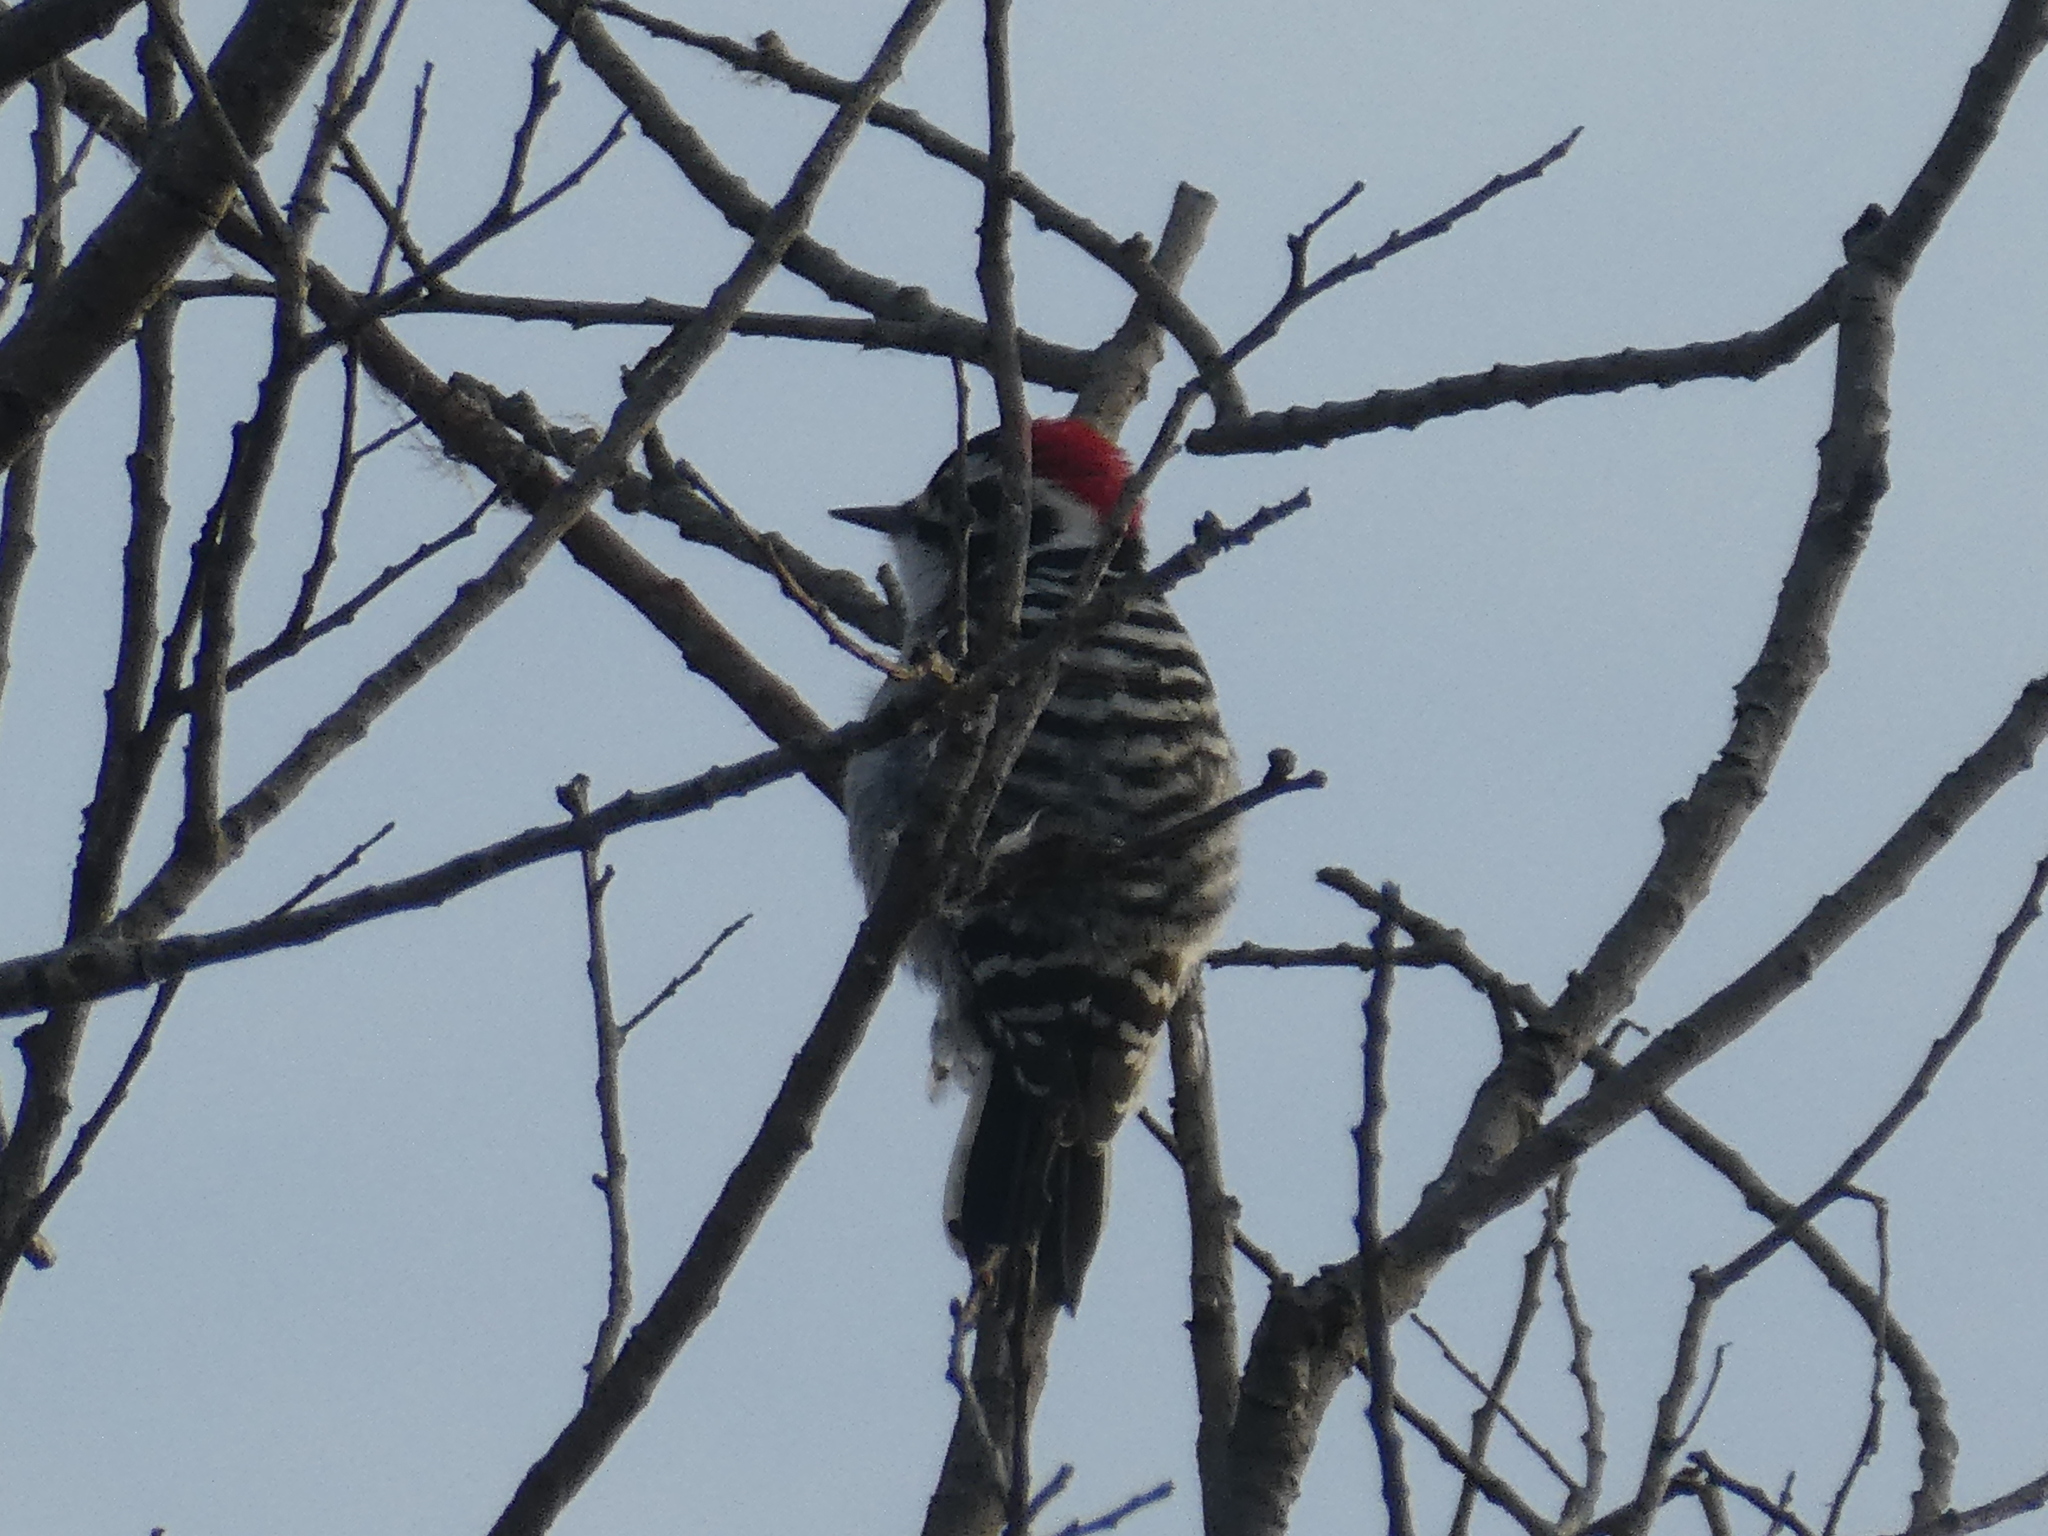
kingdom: Animalia
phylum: Chordata
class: Aves
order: Piciformes
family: Picidae
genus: Dryobates
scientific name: Dryobates nuttallii
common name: Nuttall's woodpecker
